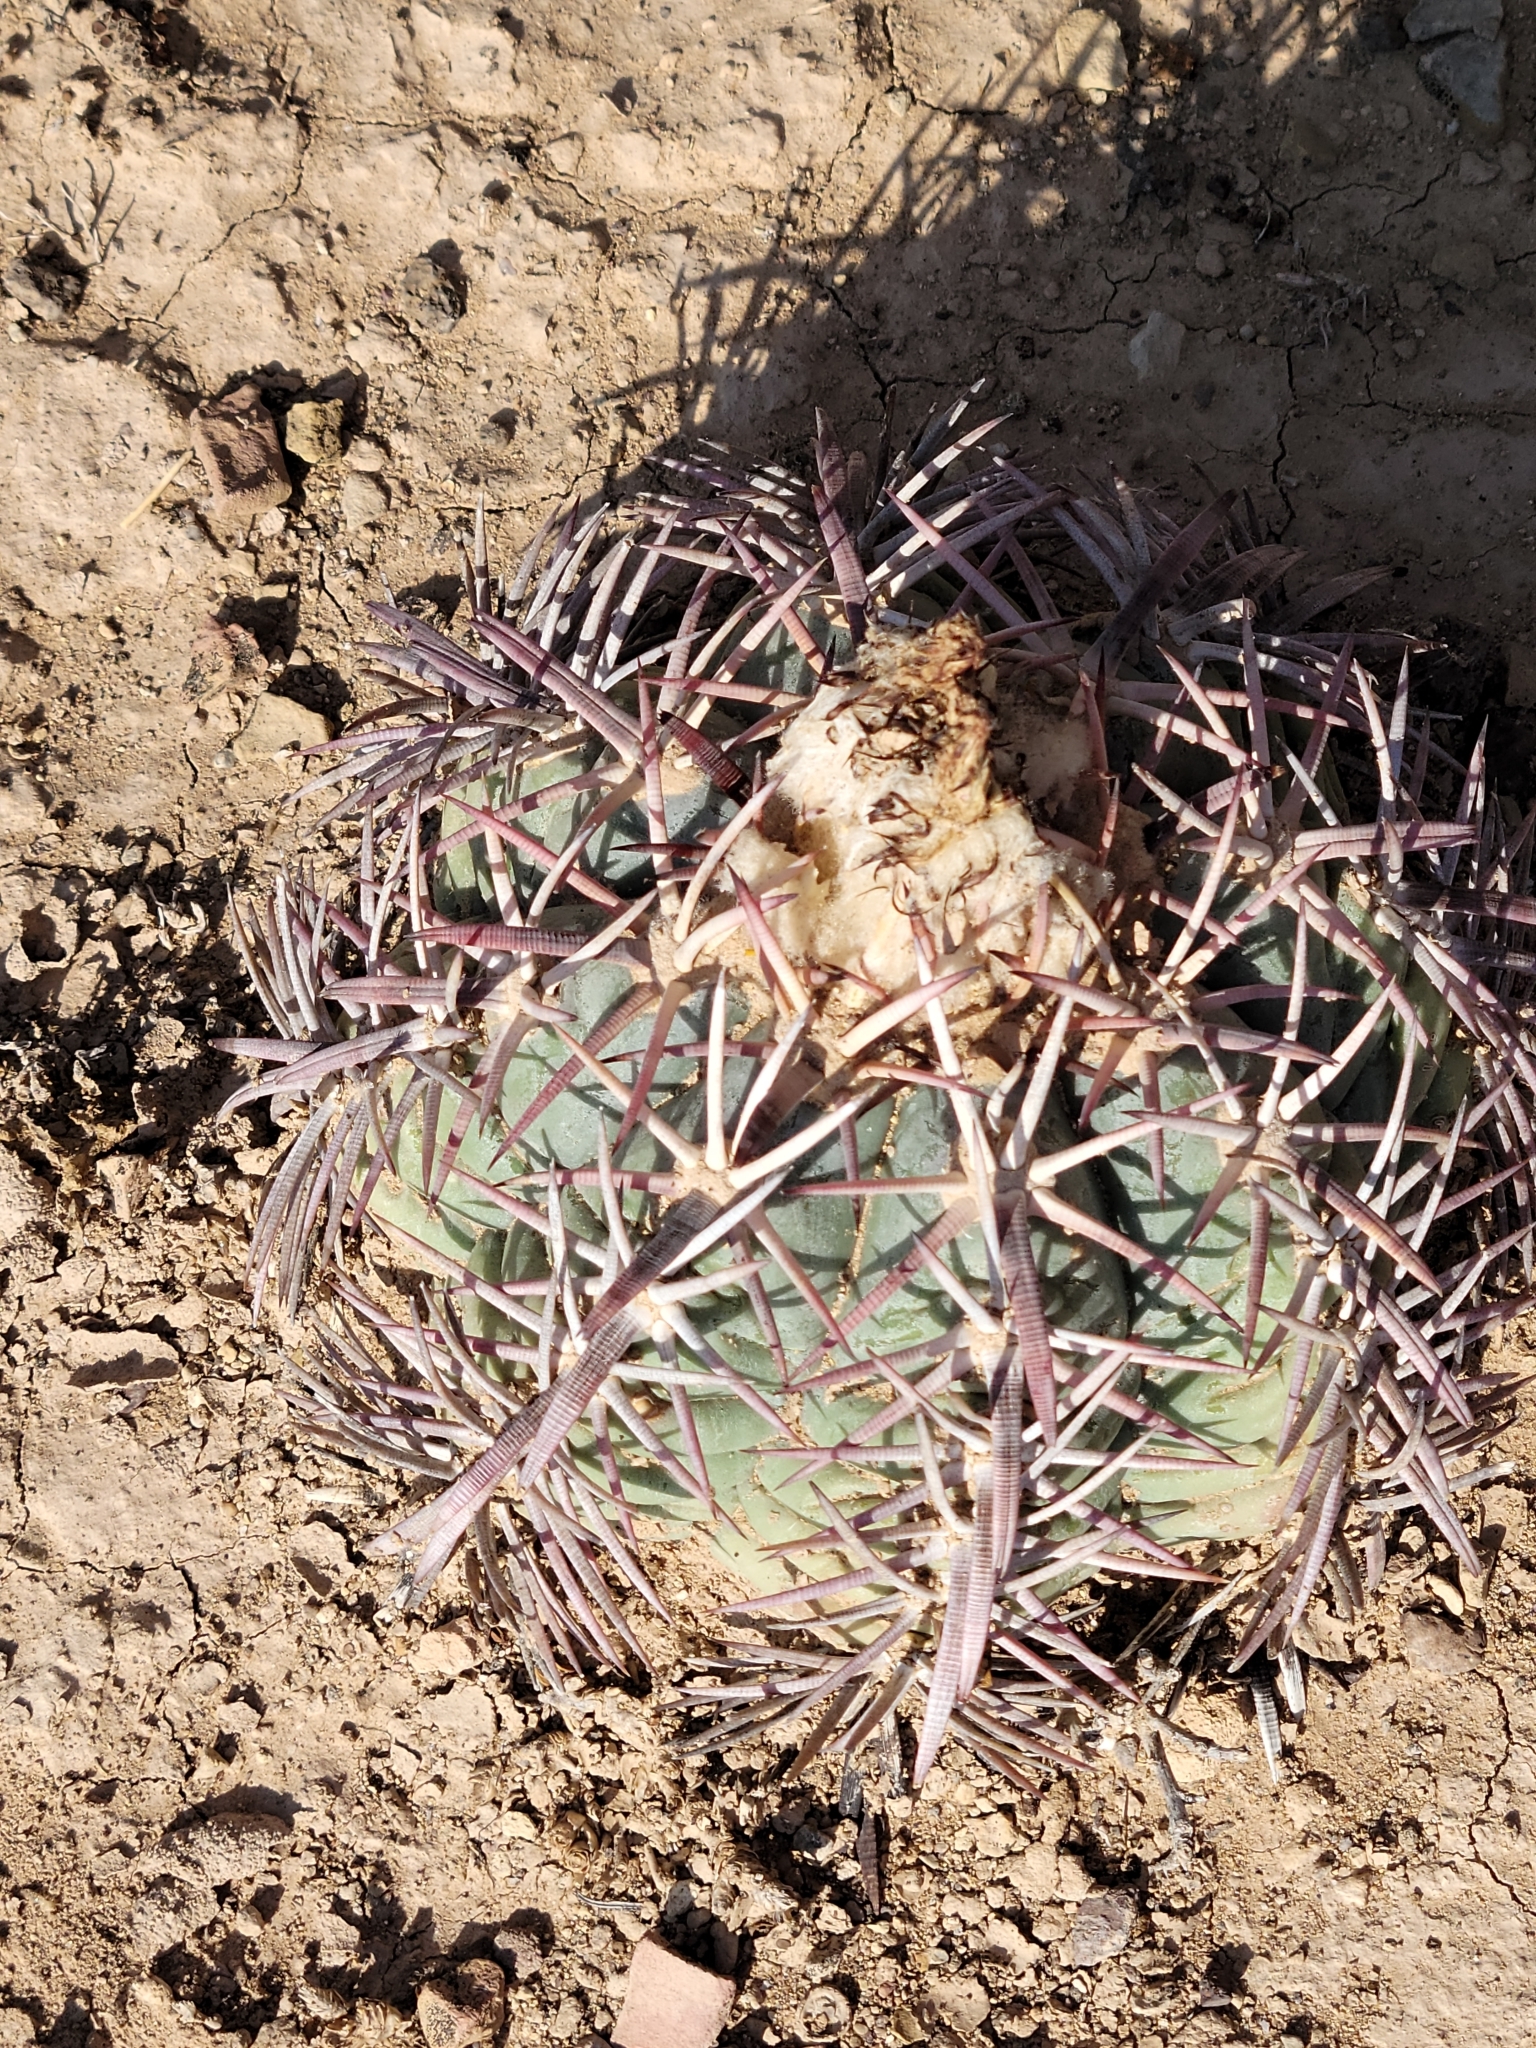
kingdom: Plantae
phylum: Tracheophyta
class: Magnoliopsida
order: Caryophyllales
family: Cactaceae
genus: Echinocactus
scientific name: Echinocactus horizonthalonius
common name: Devilshead
